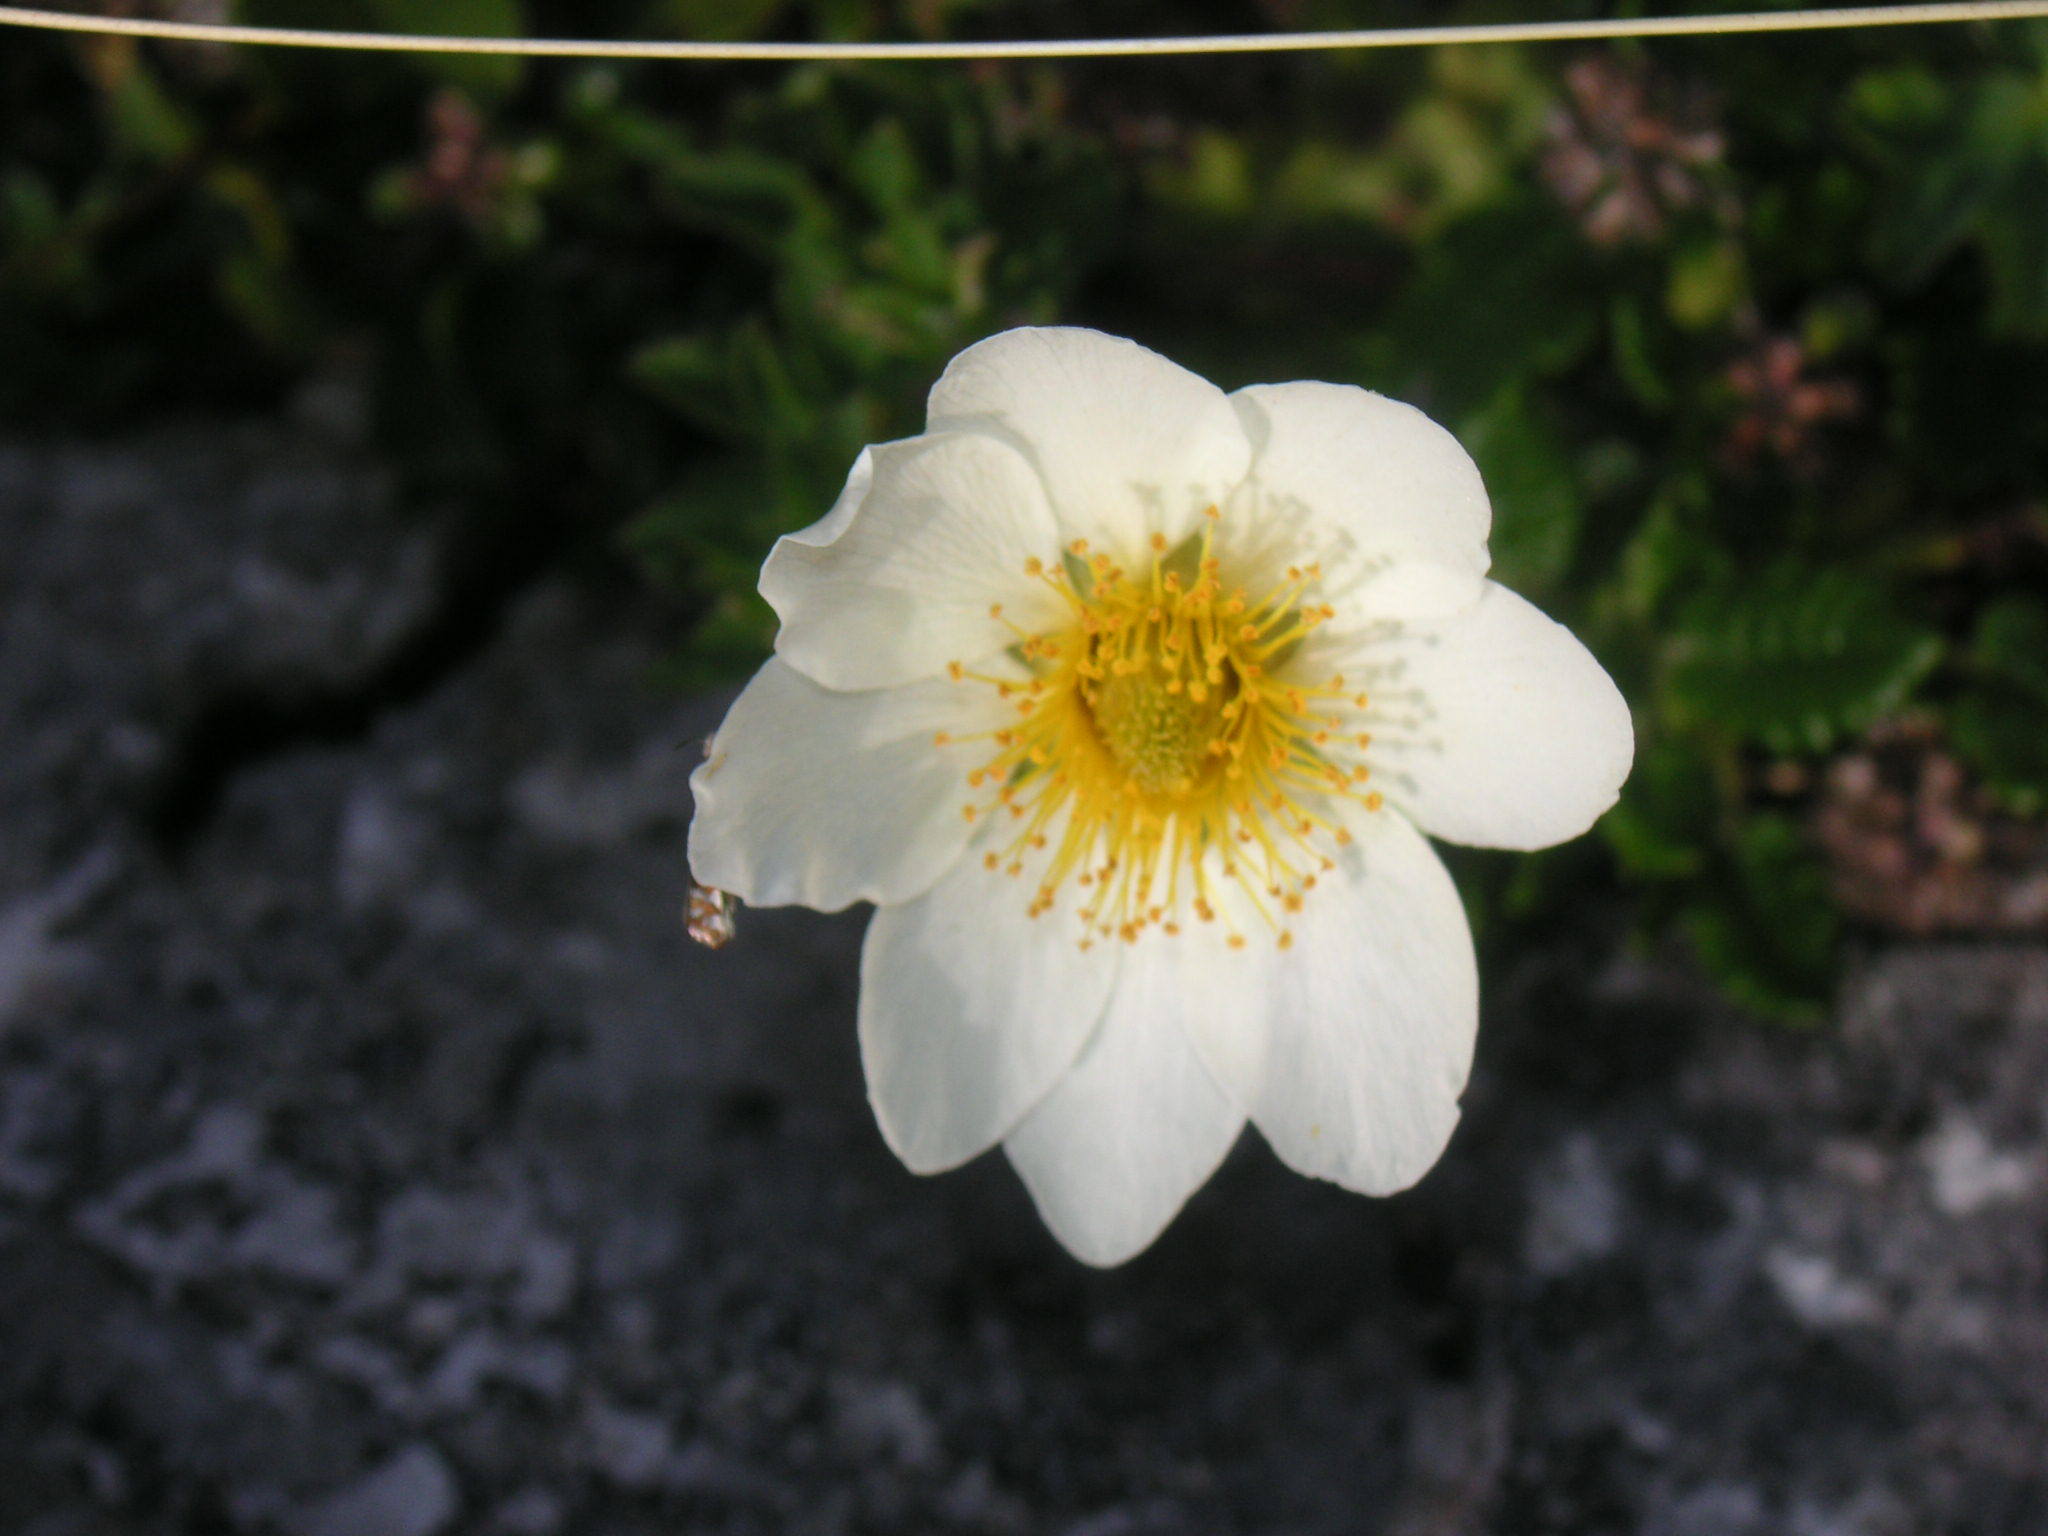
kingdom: Plantae
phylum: Tracheophyta
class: Magnoliopsida
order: Rosales
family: Rosaceae
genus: Dryas
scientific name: Dryas octopetala
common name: Eight-petal mountain-avens
